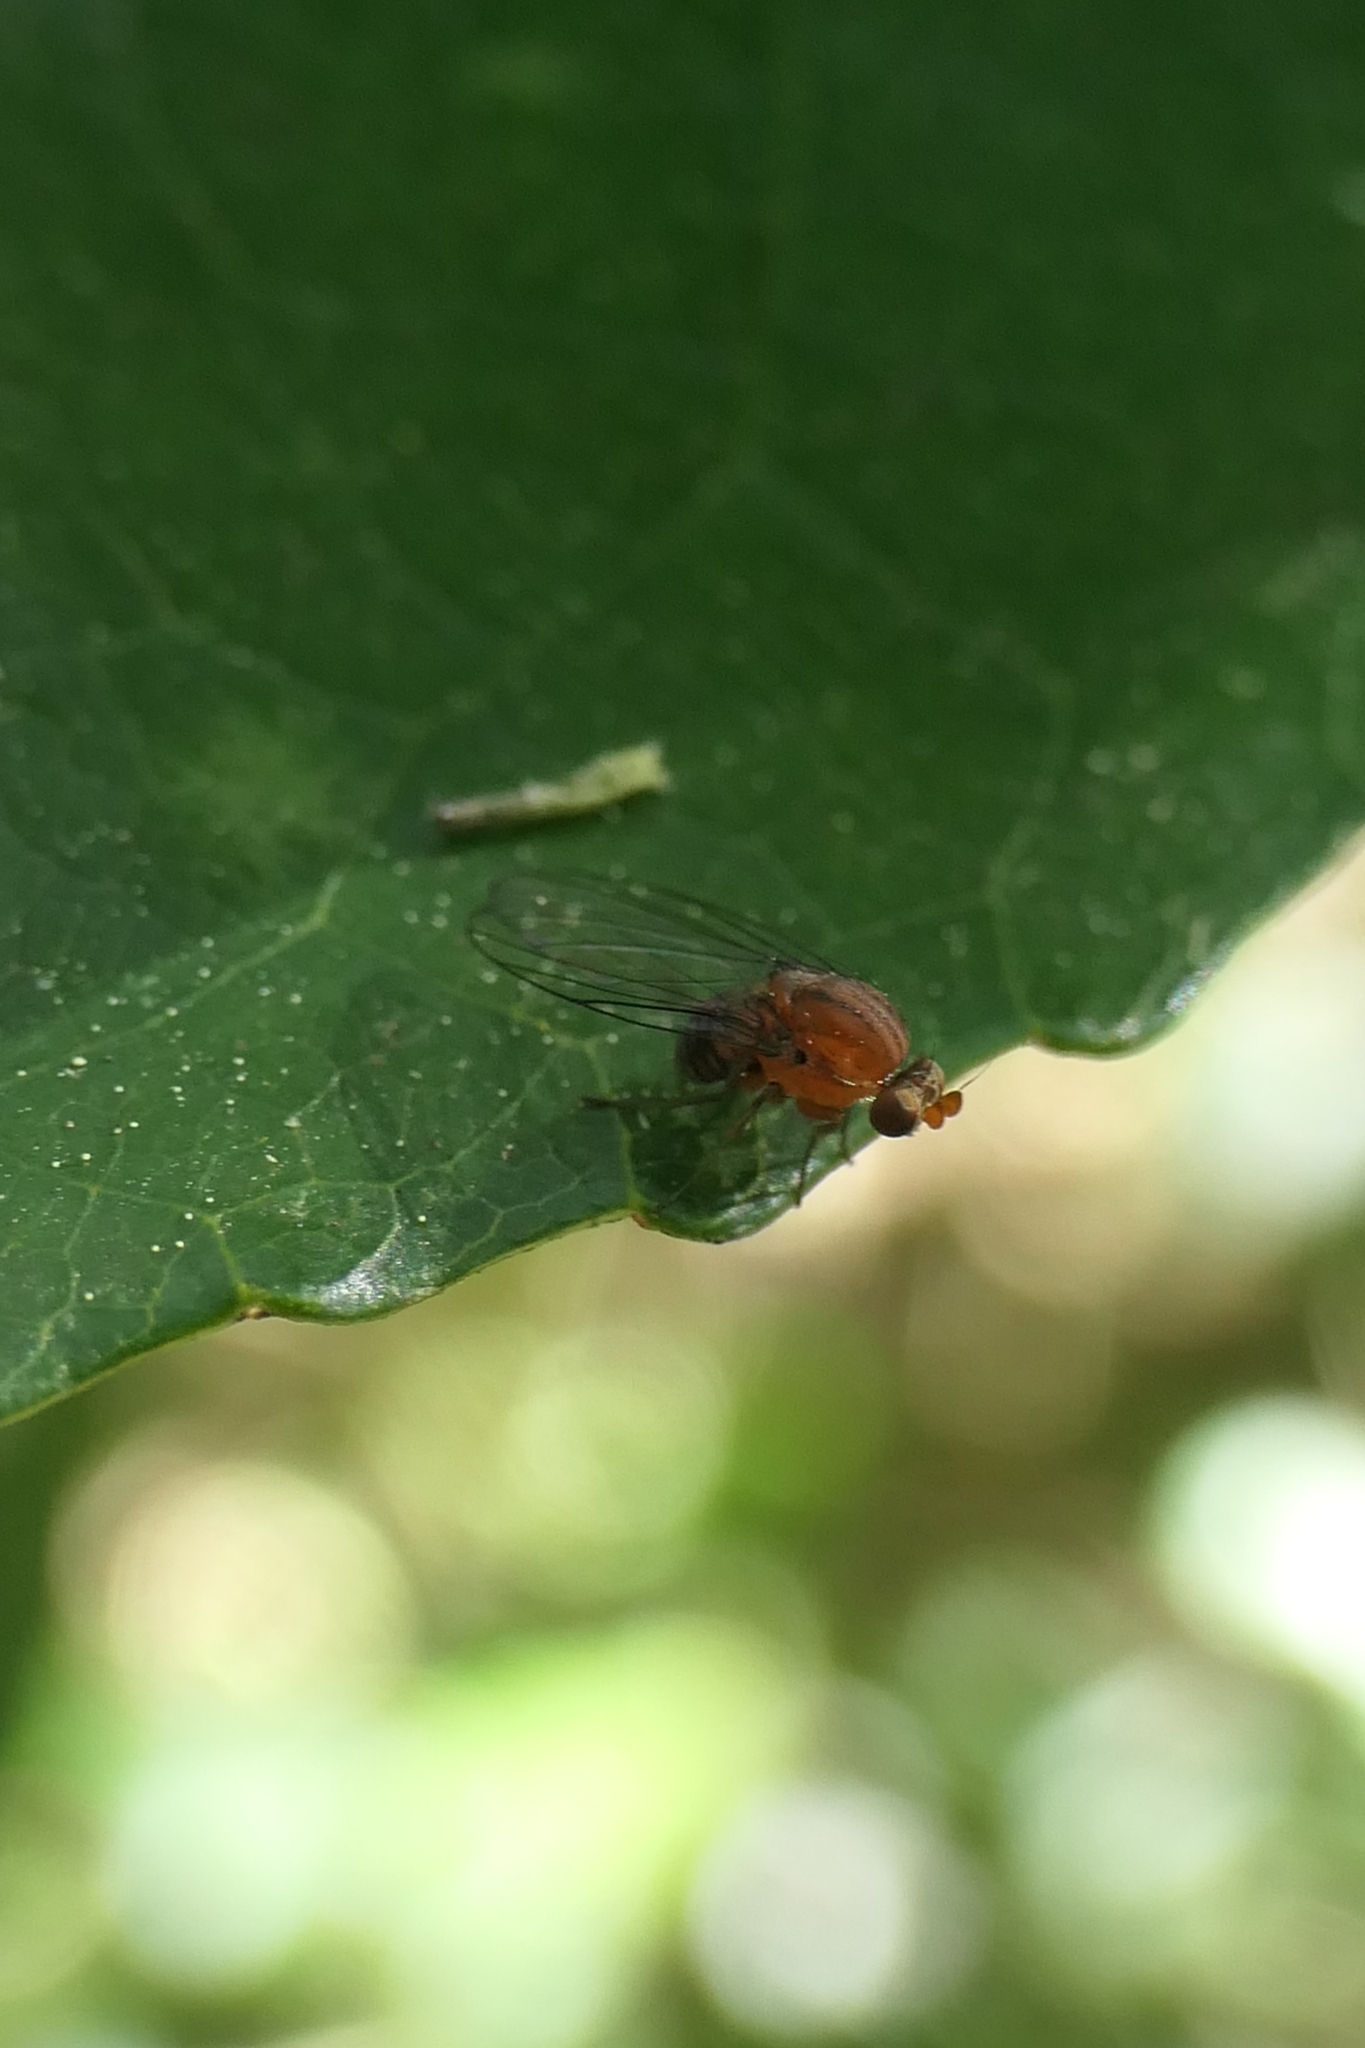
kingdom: Animalia
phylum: Arthropoda
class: Insecta
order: Diptera
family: Phoridae
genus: Sciadocera
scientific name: Sciadocera rufomaculata
